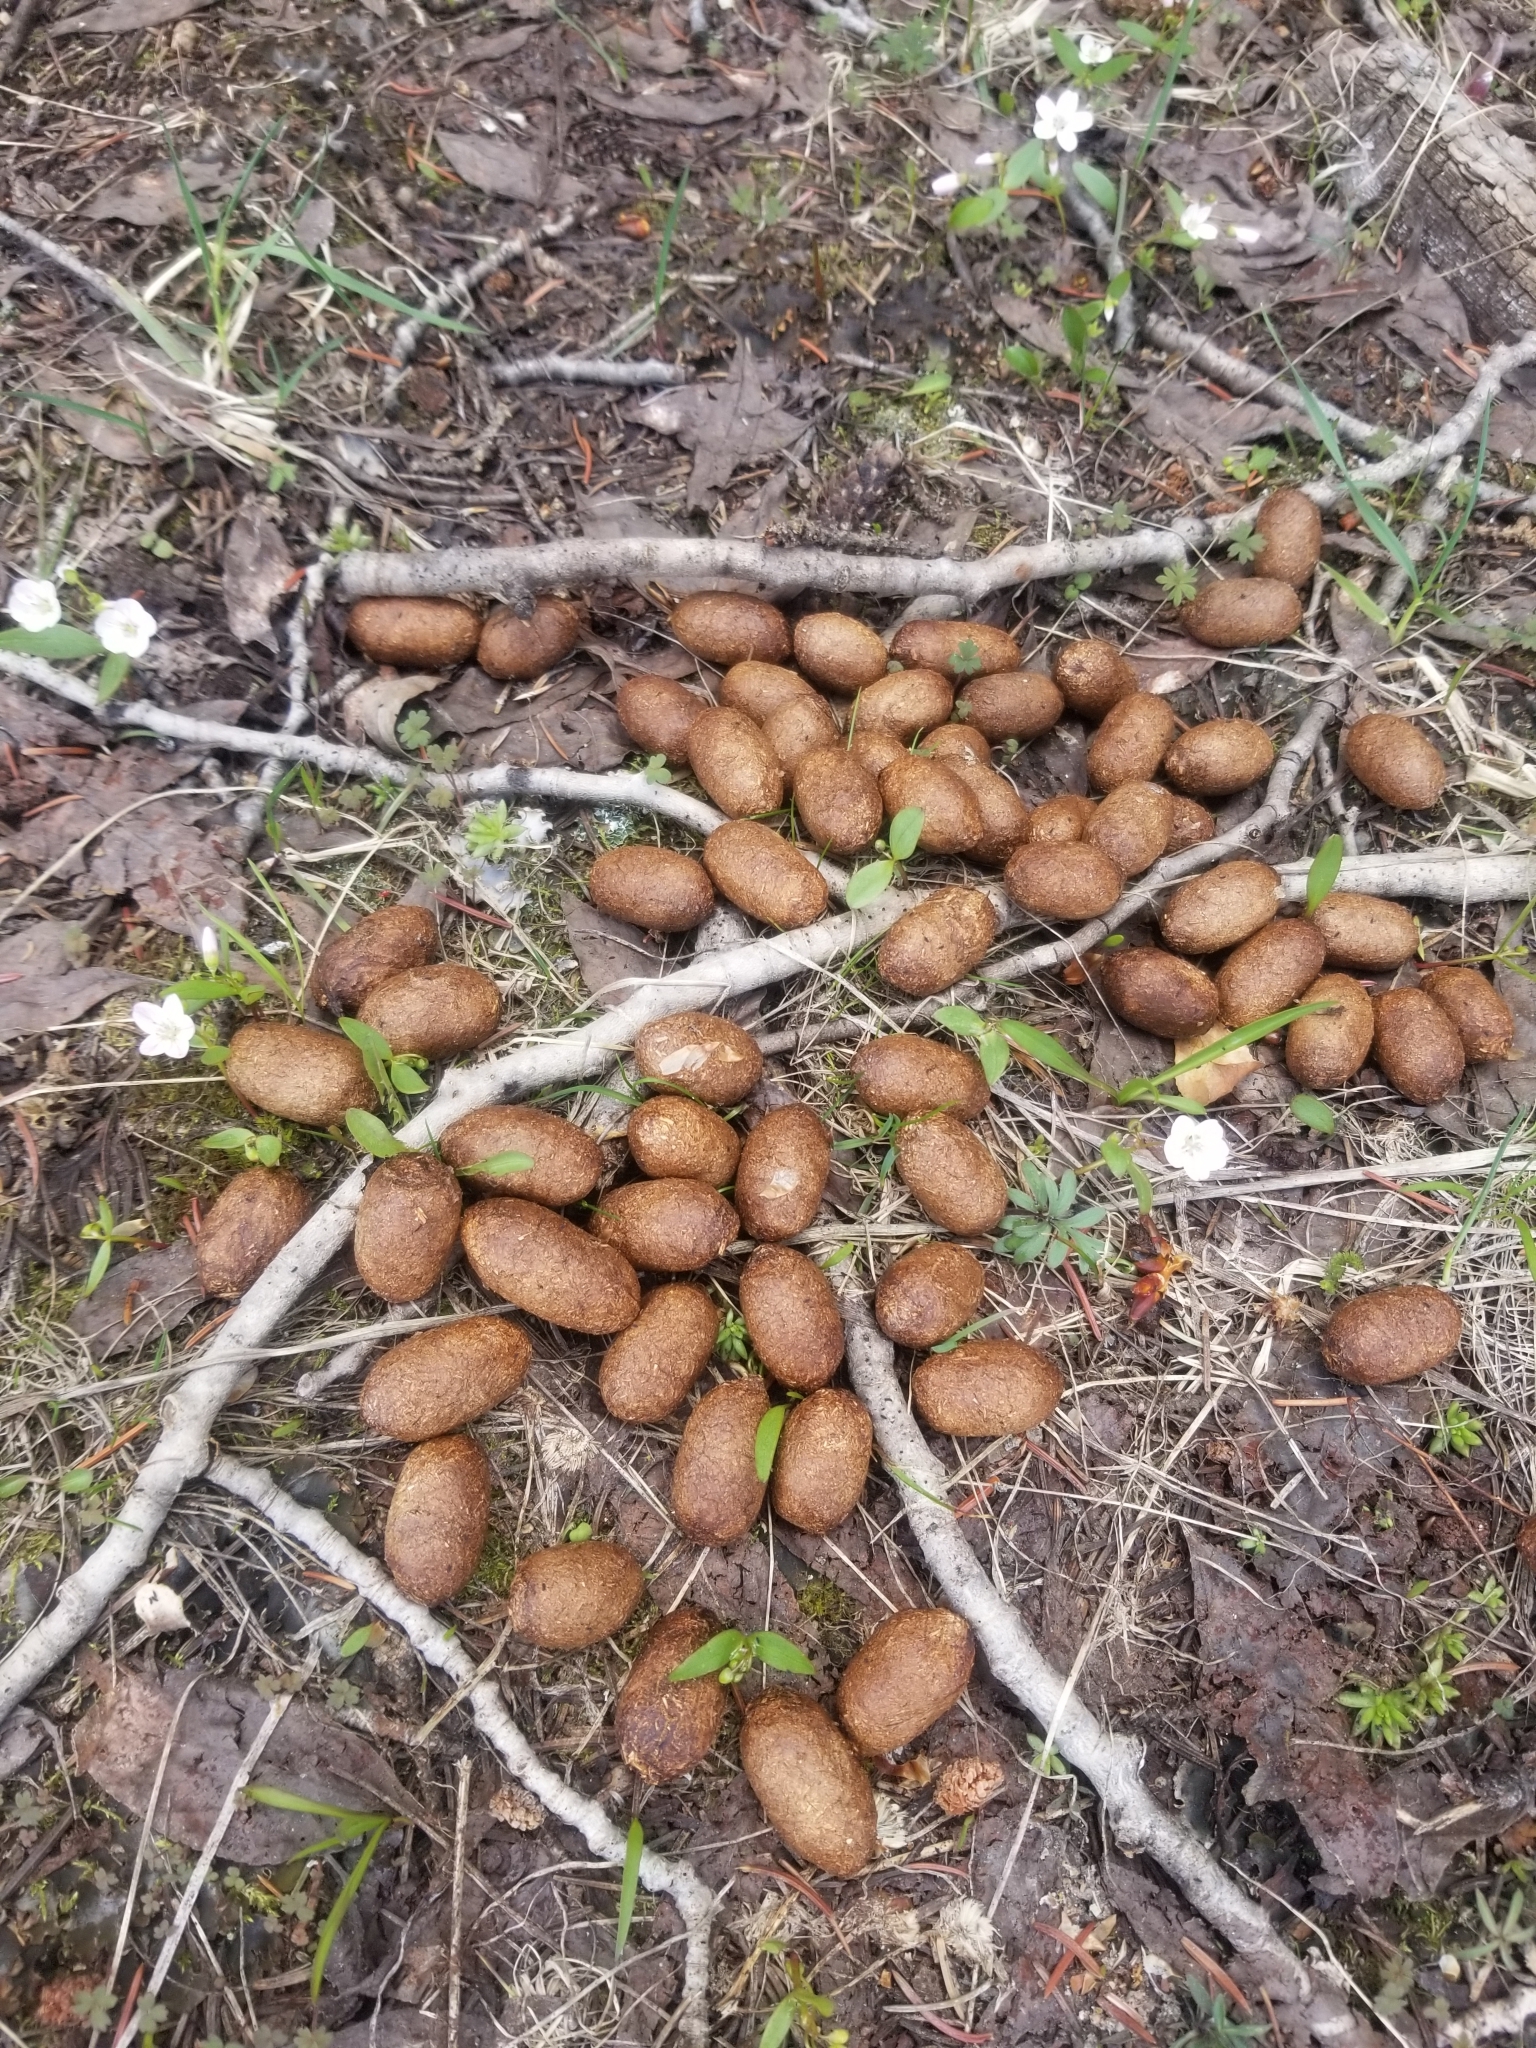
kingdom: Animalia
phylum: Chordata
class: Mammalia
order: Artiodactyla
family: Cervidae
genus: Alces
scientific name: Alces alces
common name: Moose
